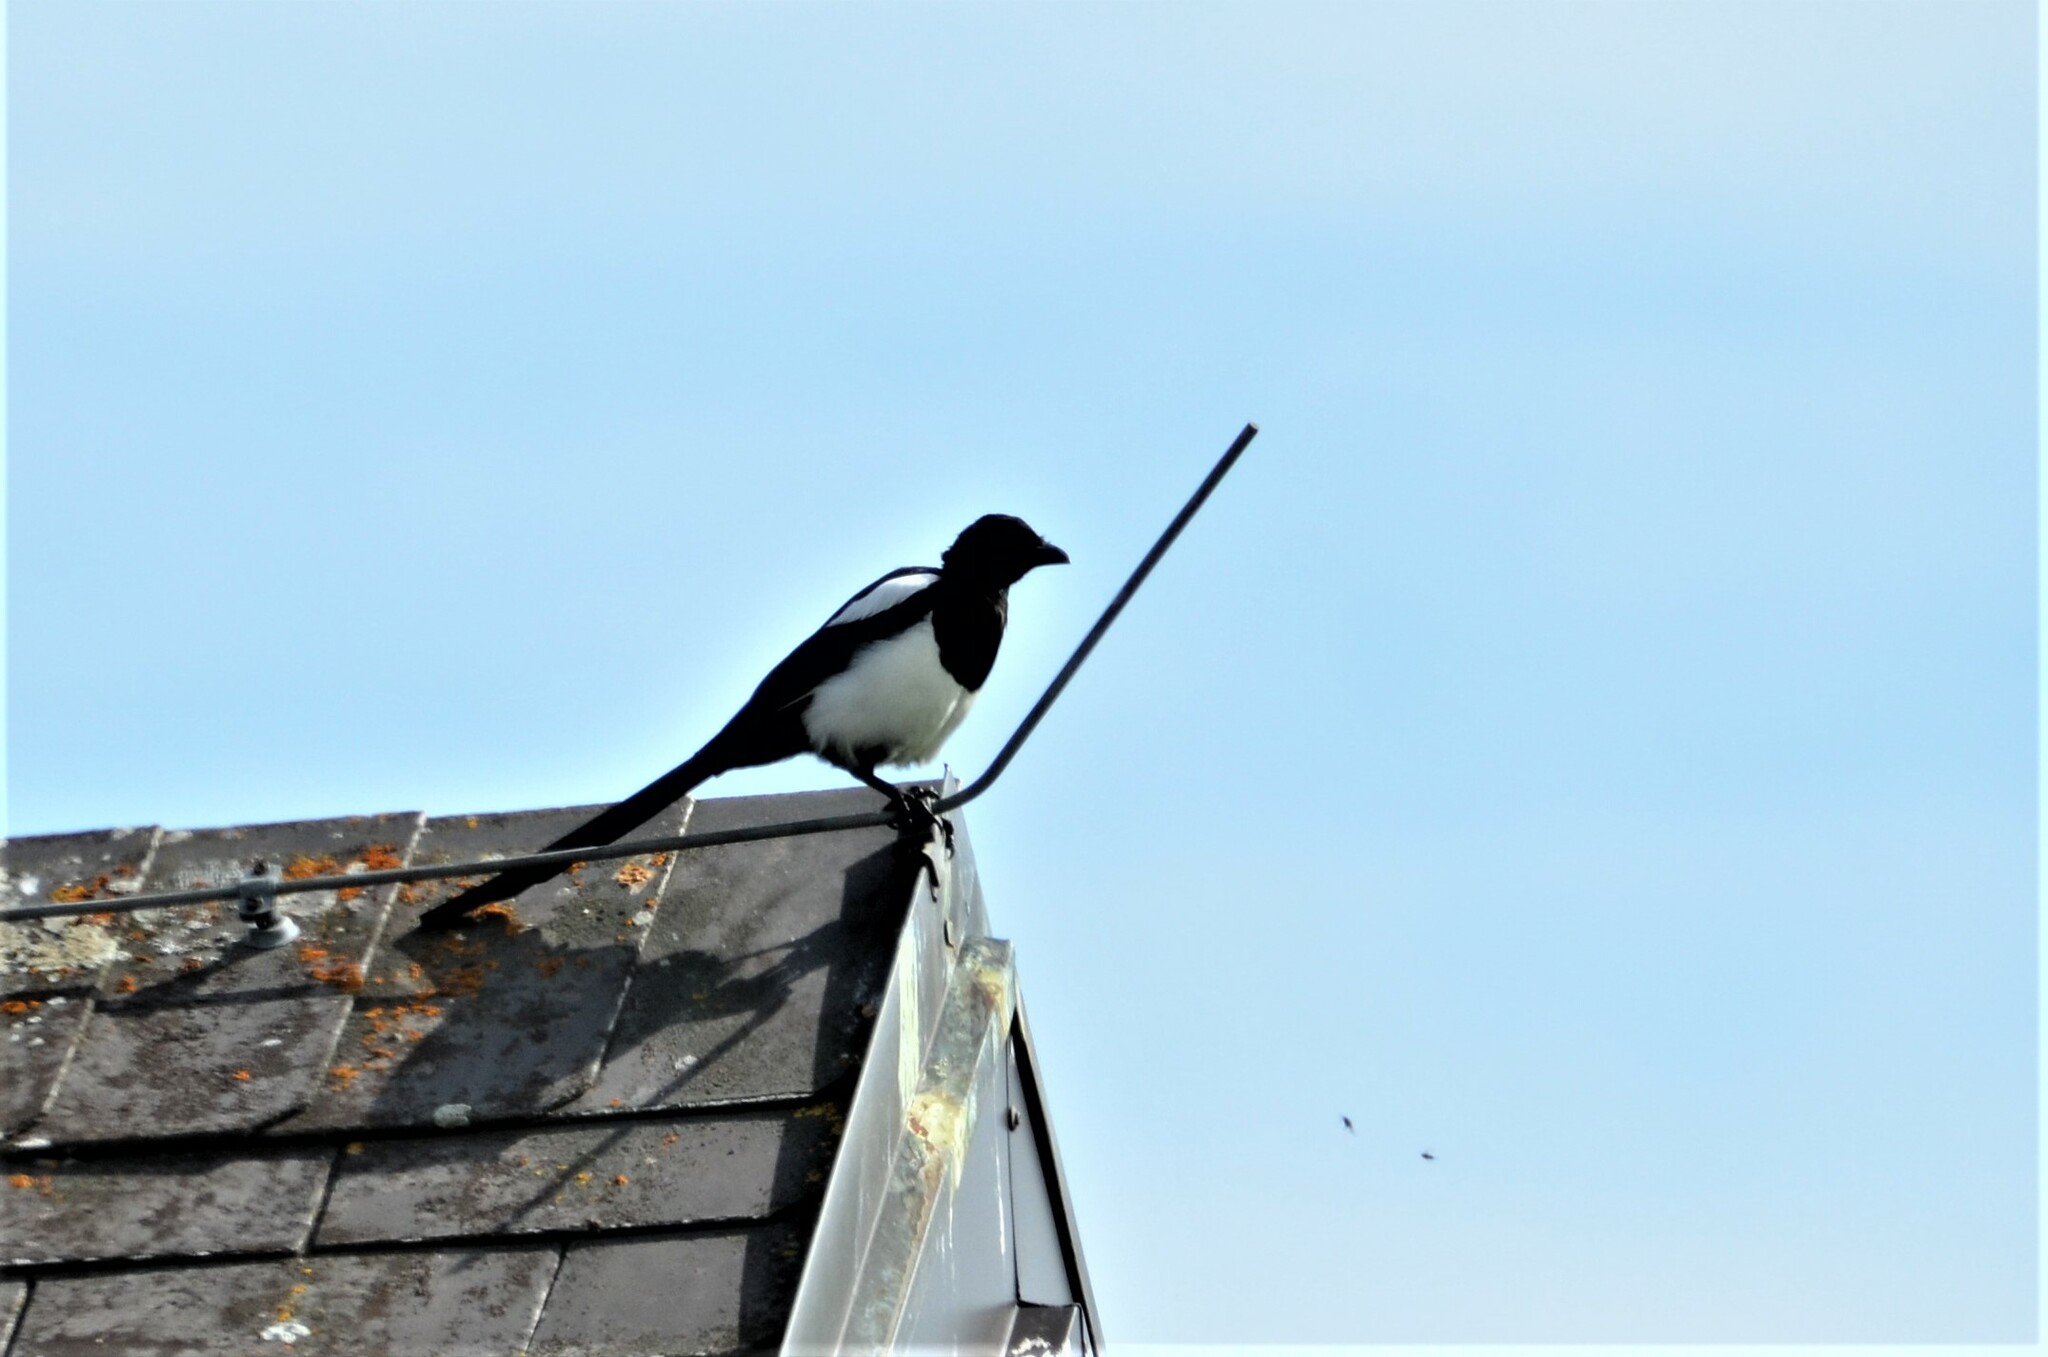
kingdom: Animalia
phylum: Chordata
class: Aves
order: Passeriformes
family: Corvidae
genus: Pica
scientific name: Pica pica
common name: Eurasian magpie
